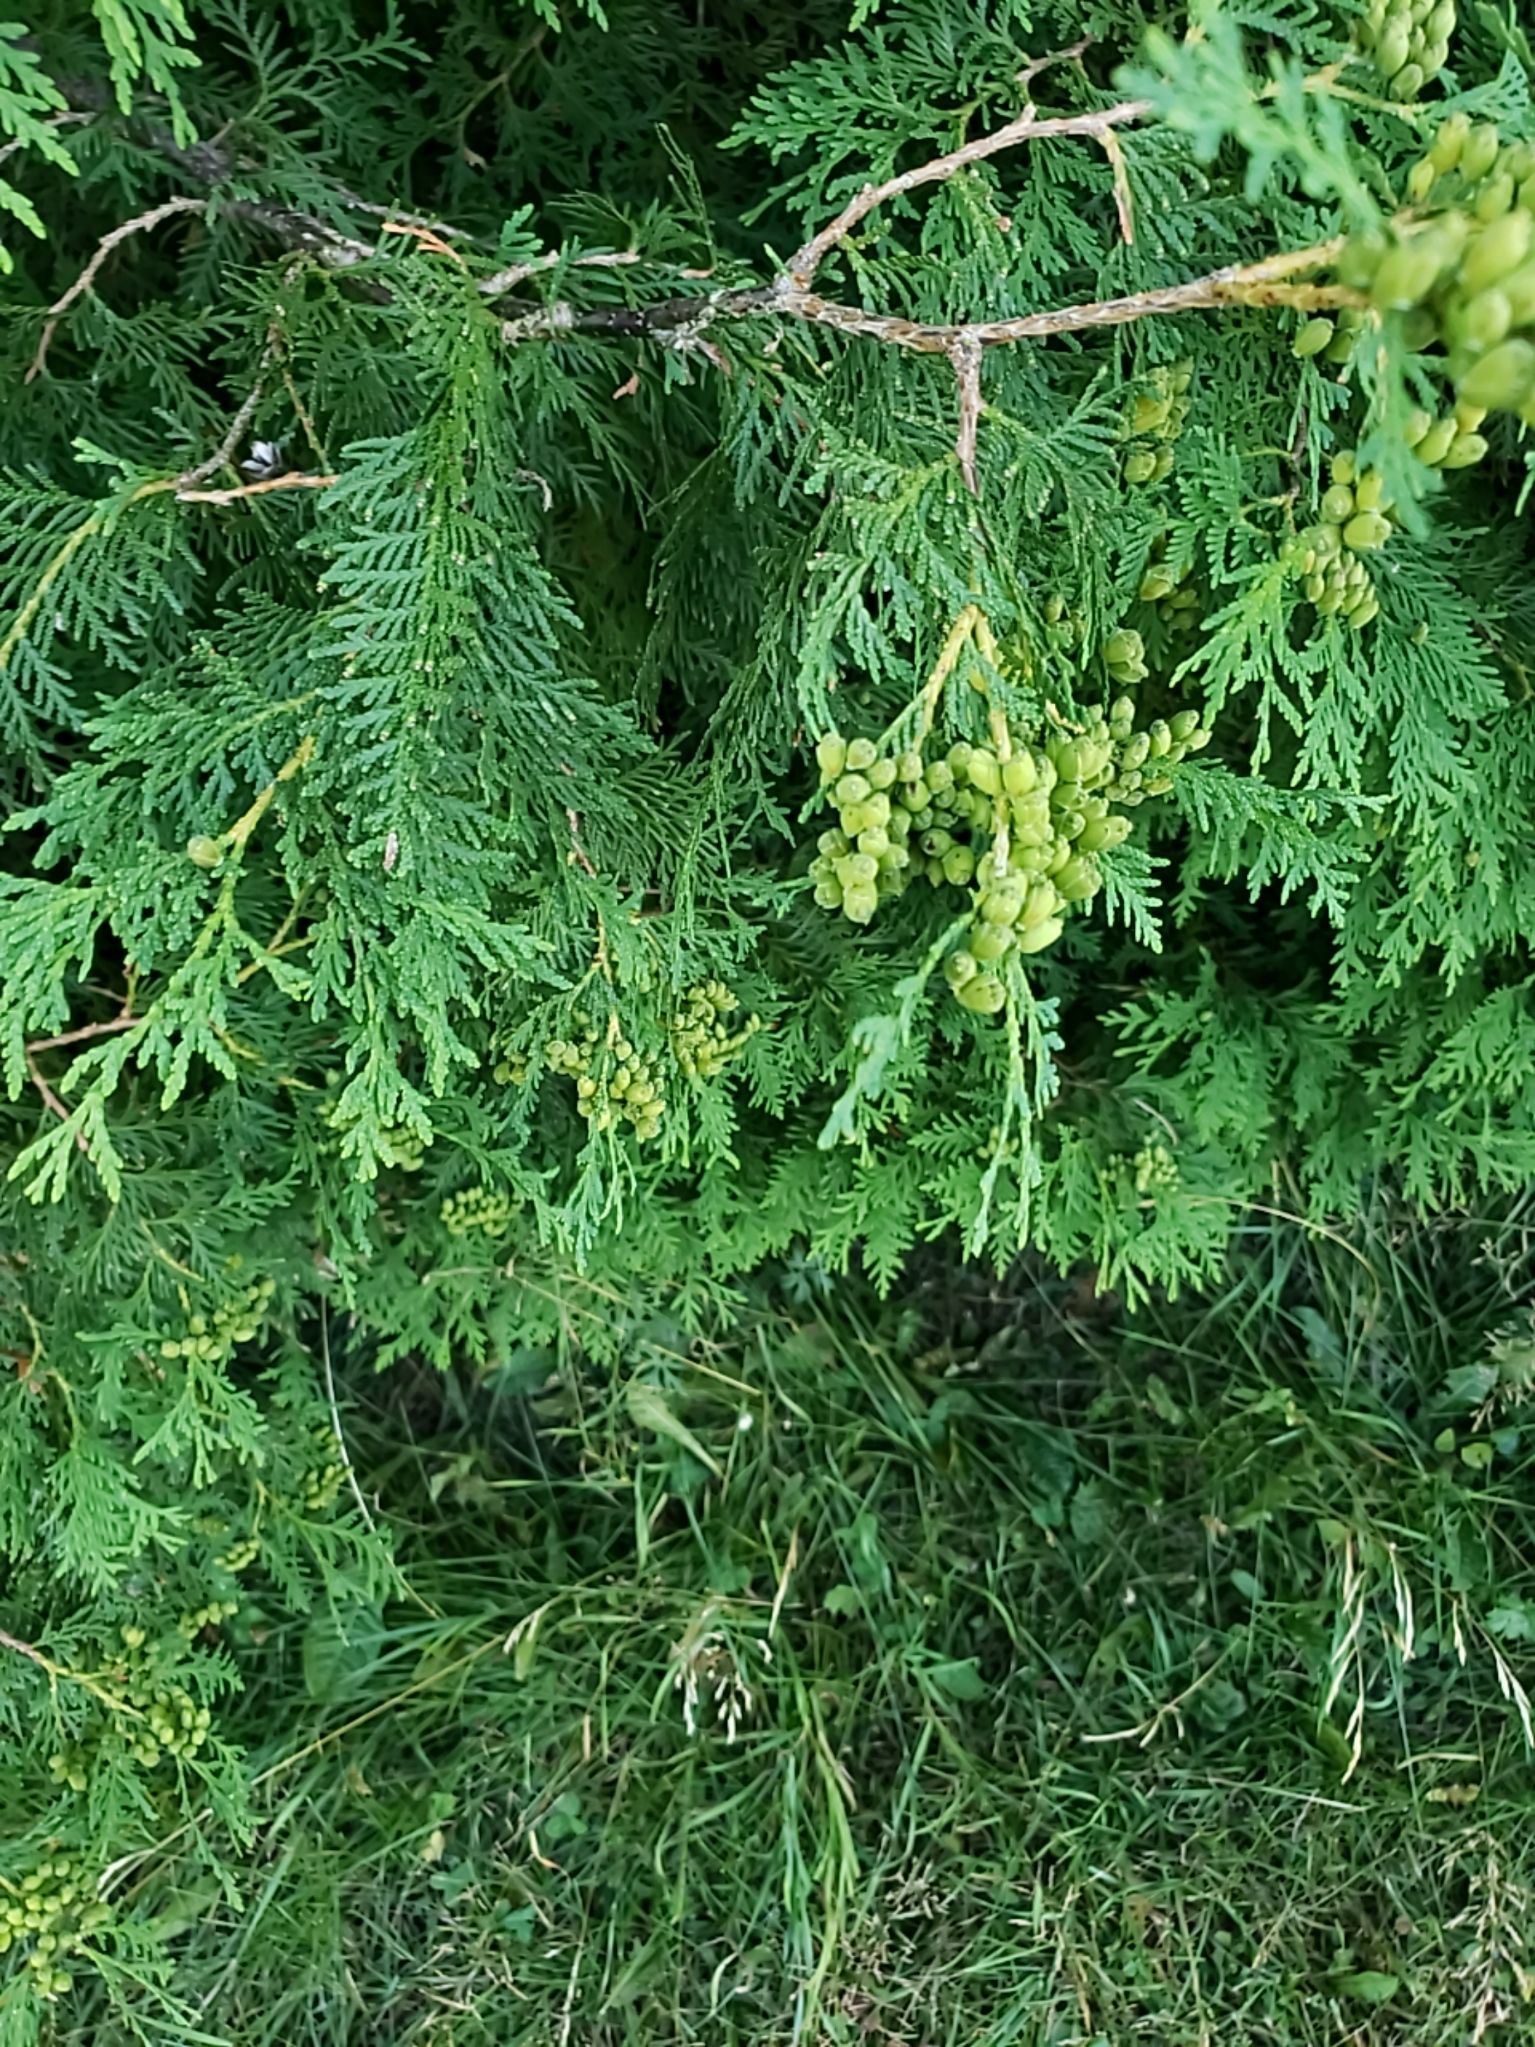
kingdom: Plantae
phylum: Tracheophyta
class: Pinopsida
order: Pinales
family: Cupressaceae
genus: Thuja
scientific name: Thuja occidentalis
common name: Northern white-cedar
